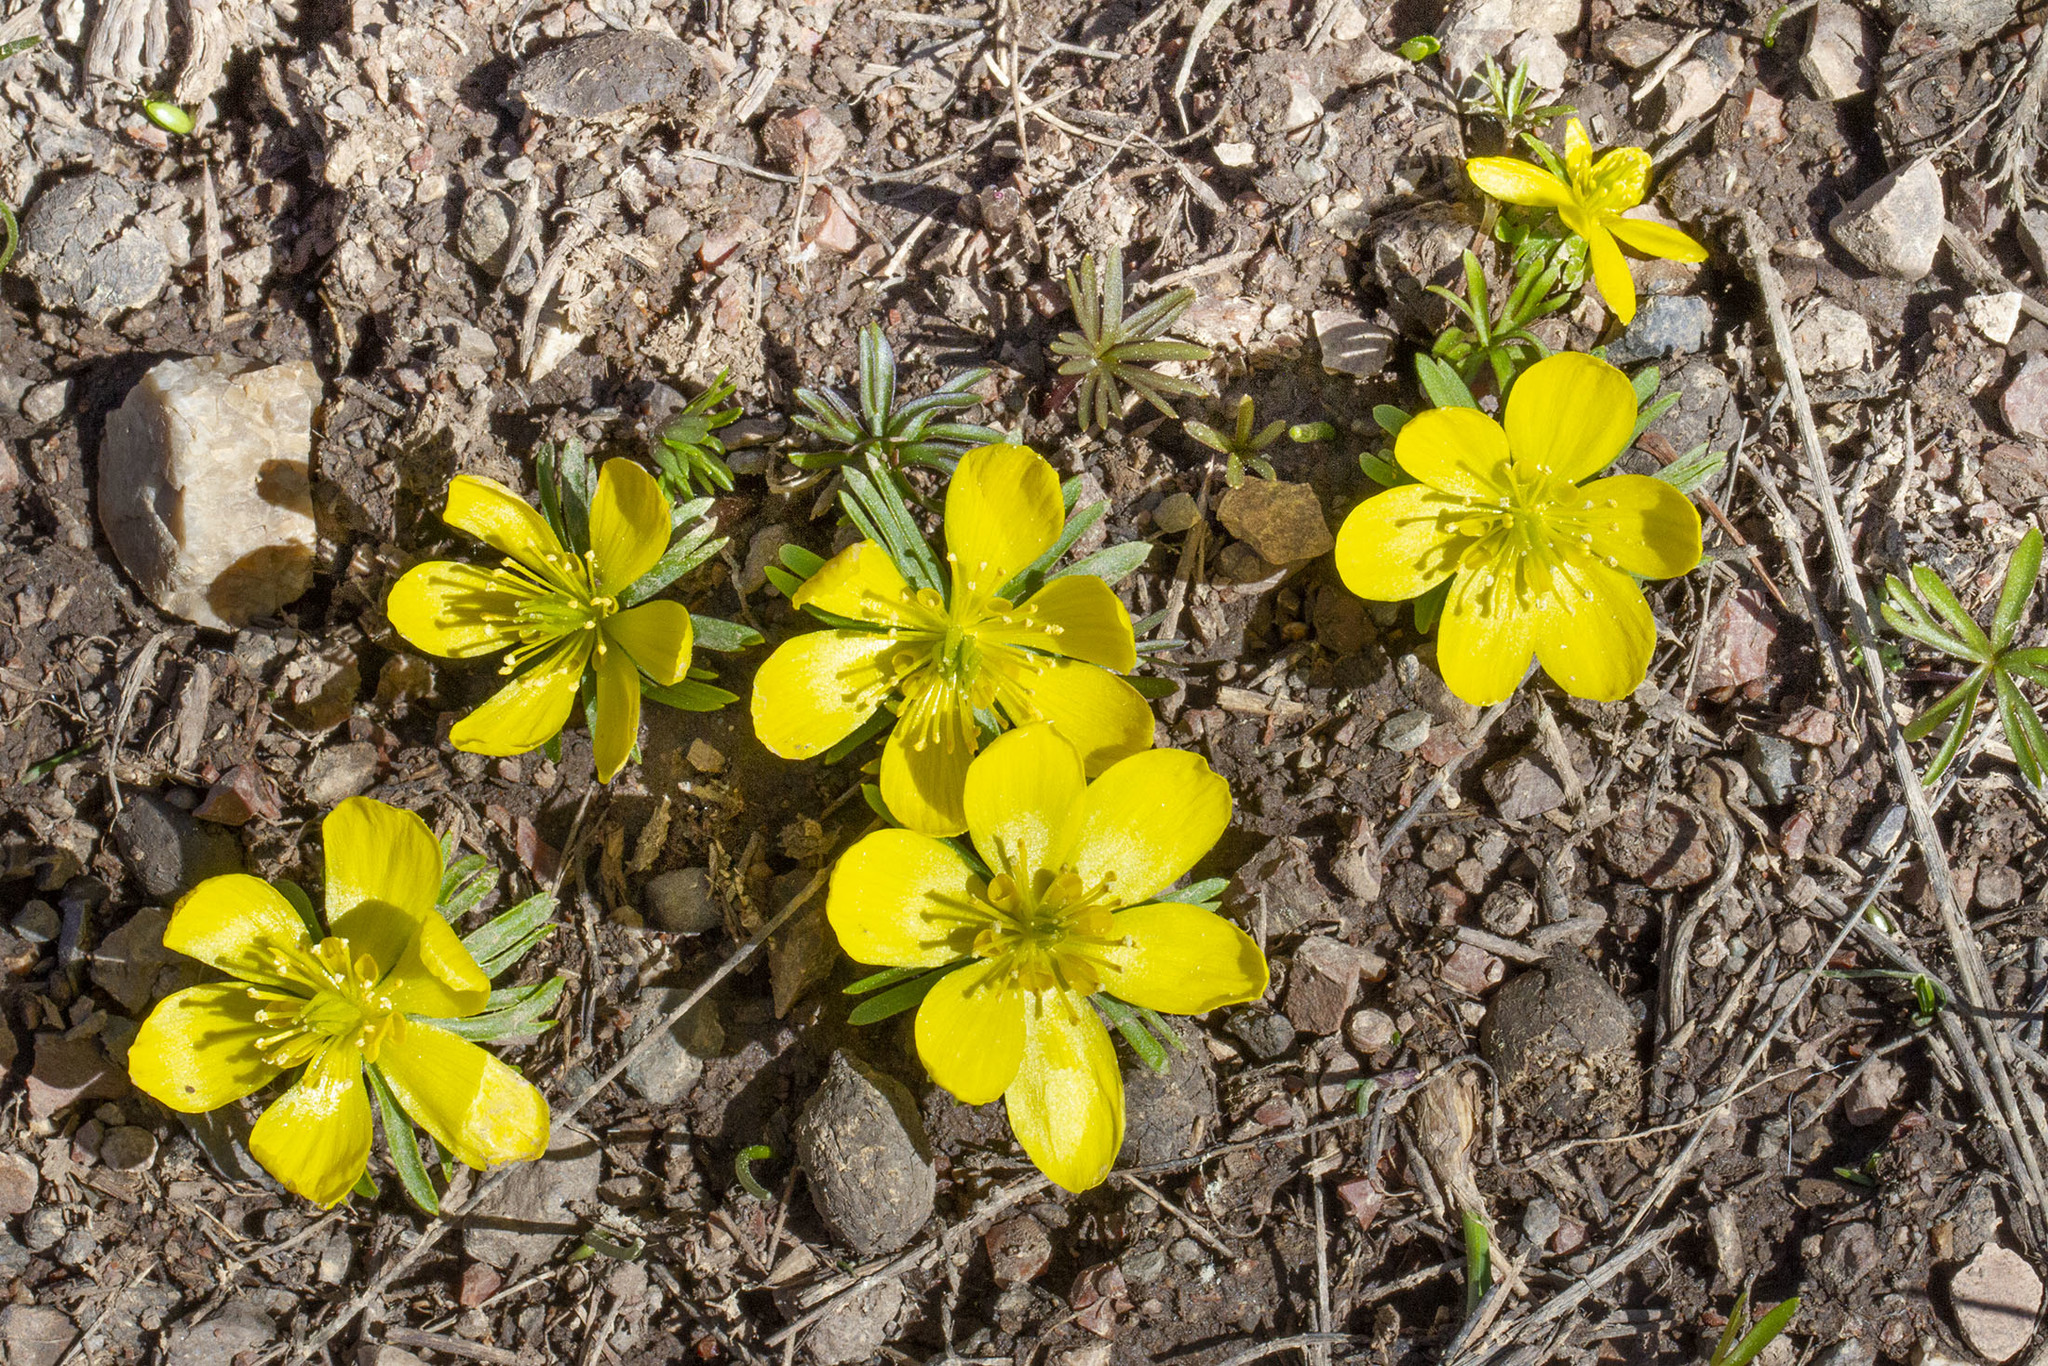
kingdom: Plantae
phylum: Tracheophyta
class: Magnoliopsida
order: Ranunculales
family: Ranunculaceae
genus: Eranthis
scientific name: Eranthis cilicica
